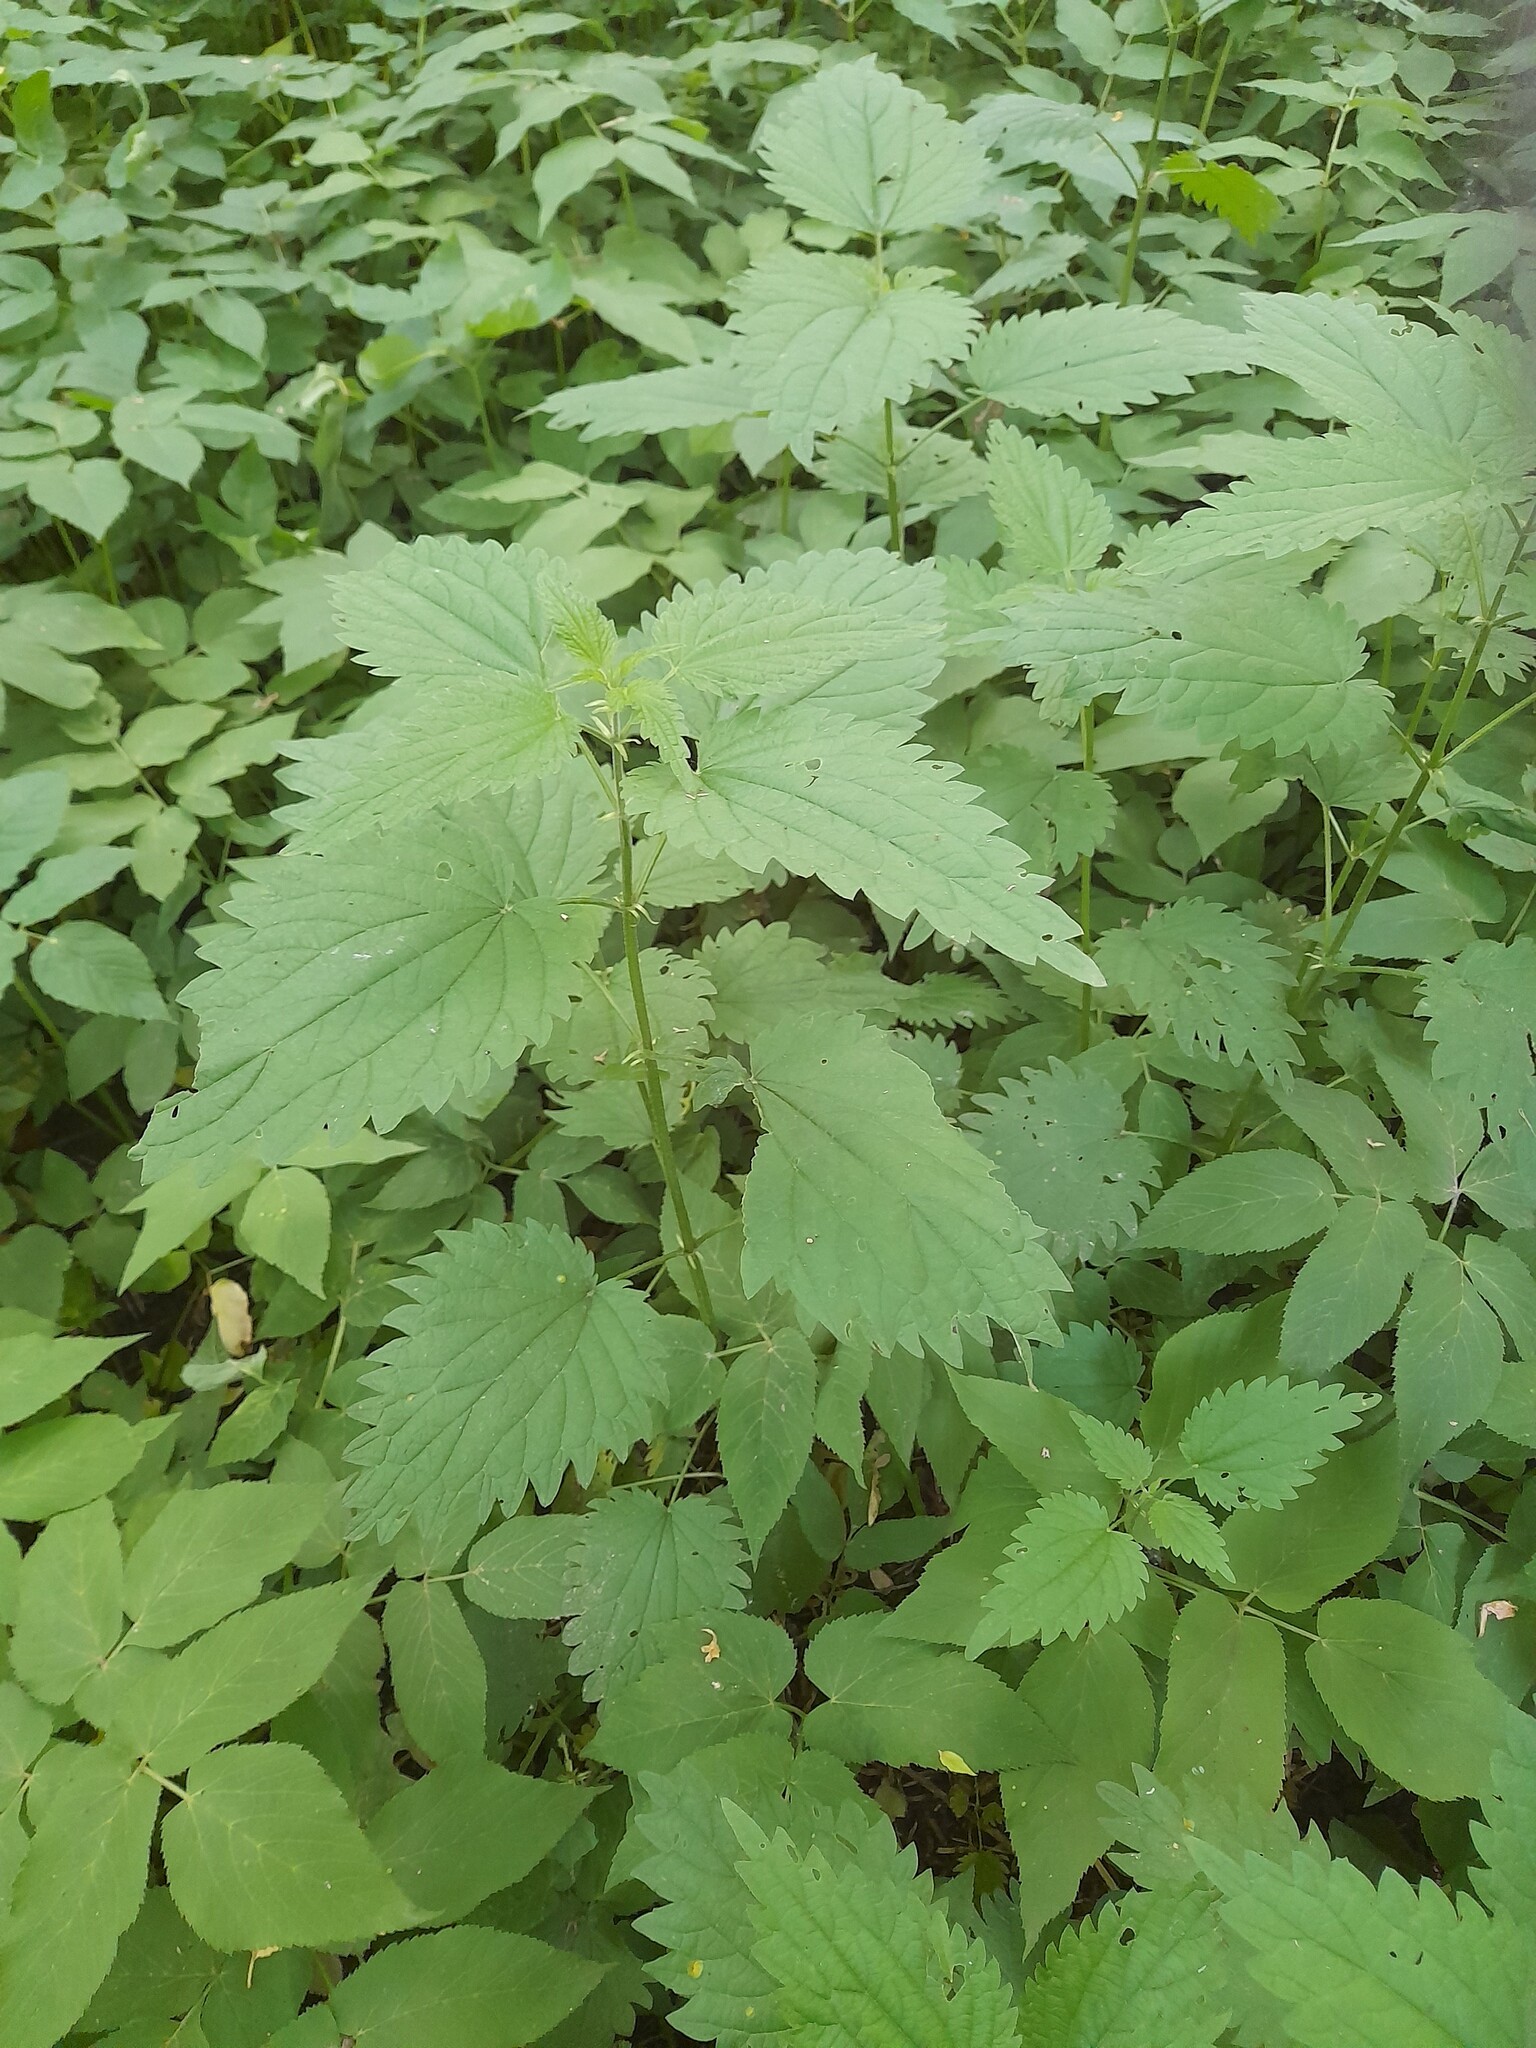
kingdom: Plantae
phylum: Tracheophyta
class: Magnoliopsida
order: Rosales
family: Urticaceae
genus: Urtica
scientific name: Urtica dioica
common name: Common nettle
